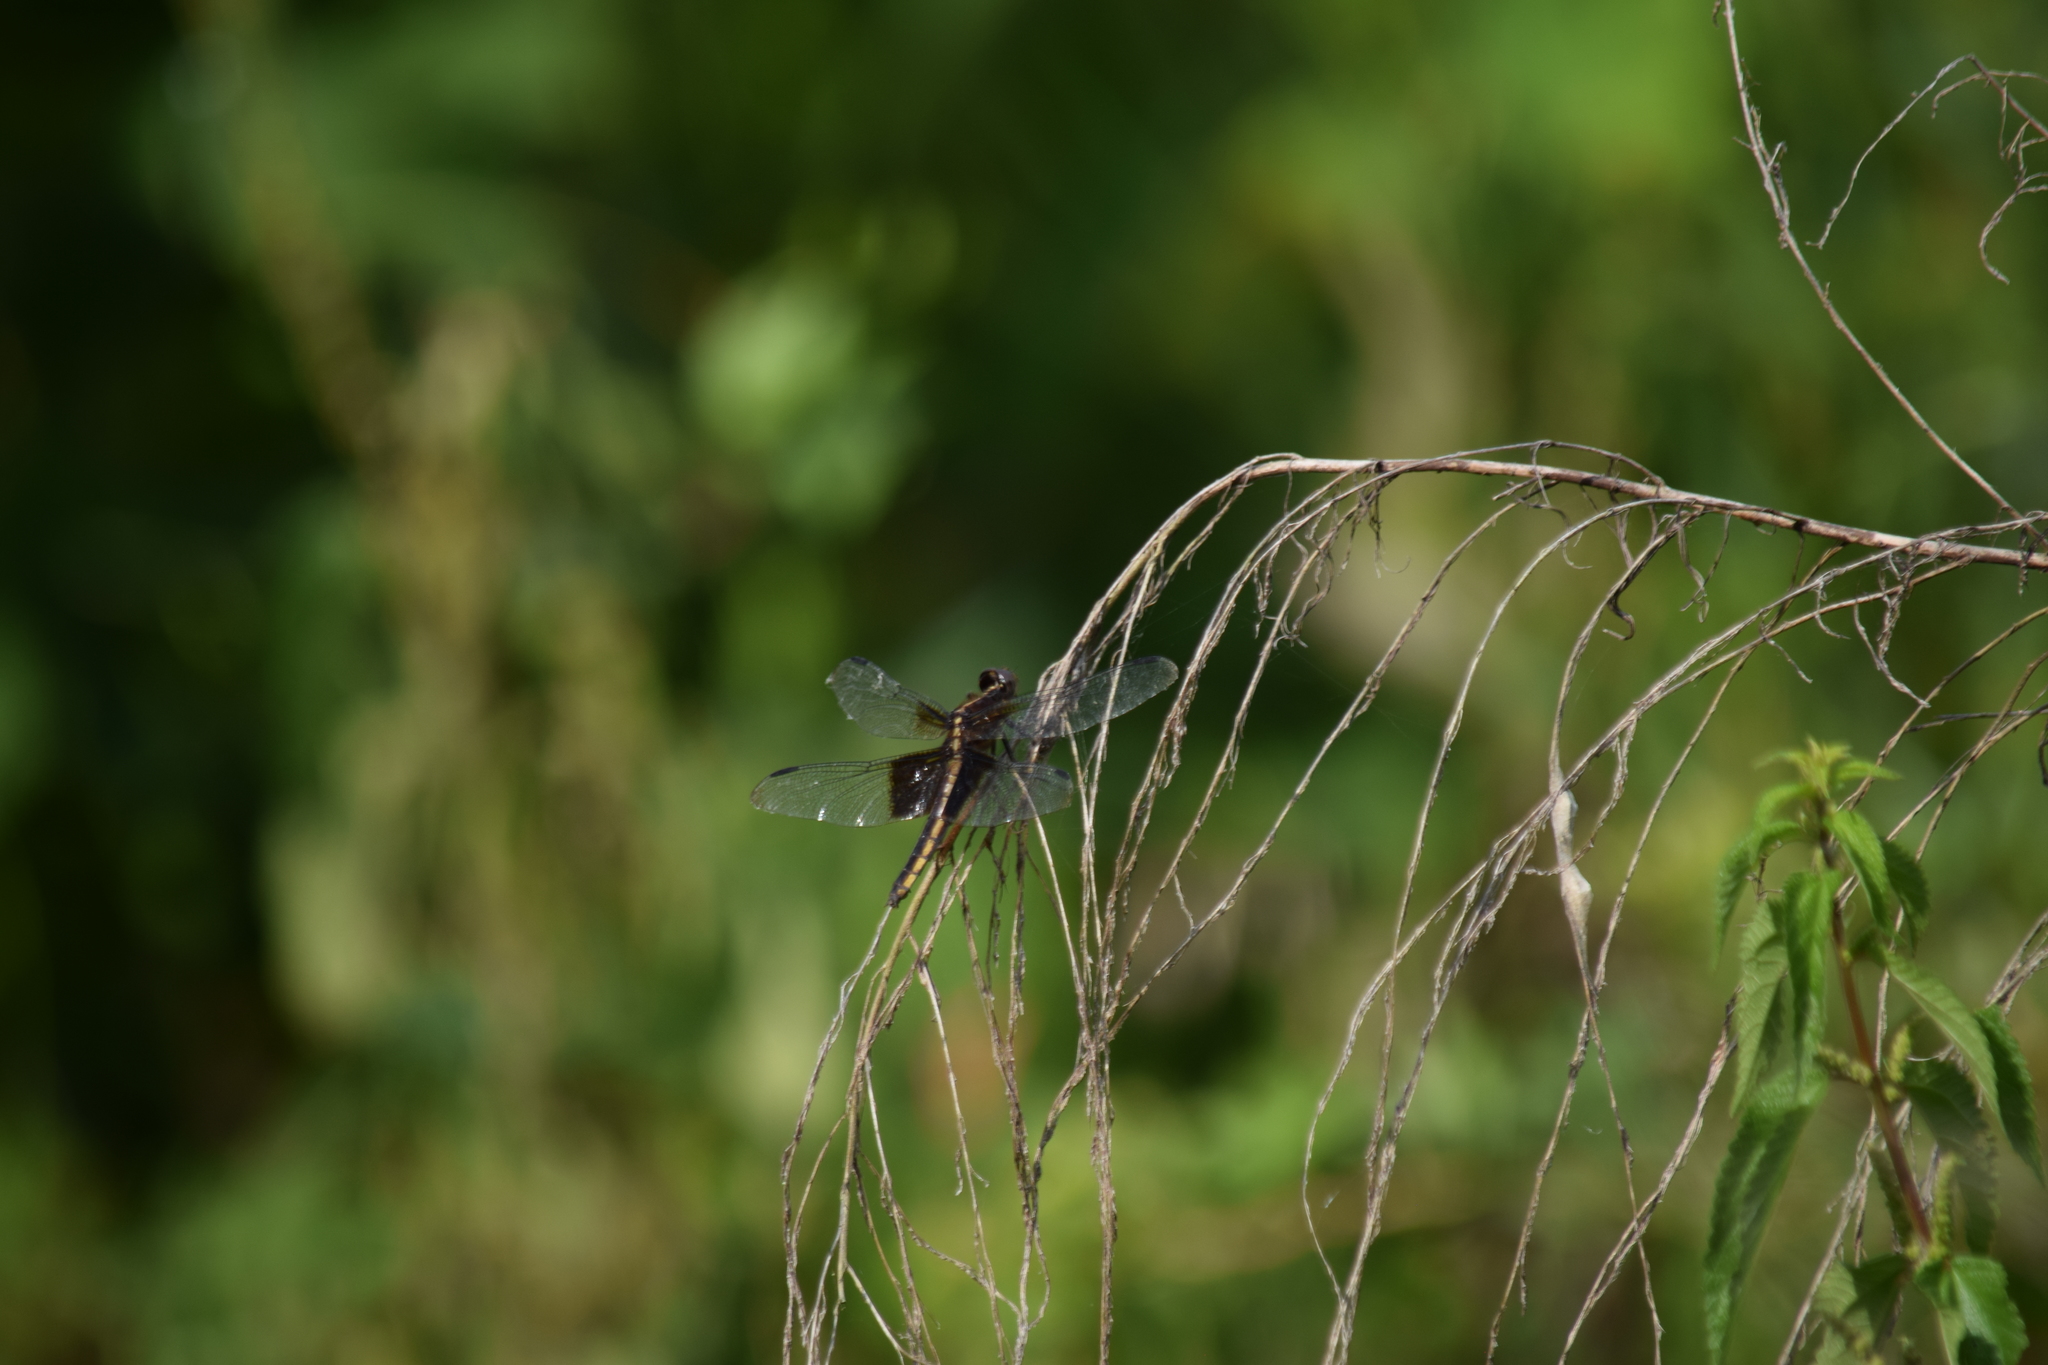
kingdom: Animalia
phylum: Arthropoda
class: Insecta
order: Odonata
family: Libellulidae
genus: Libellula
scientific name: Libellula luctuosa
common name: Widow skimmer
